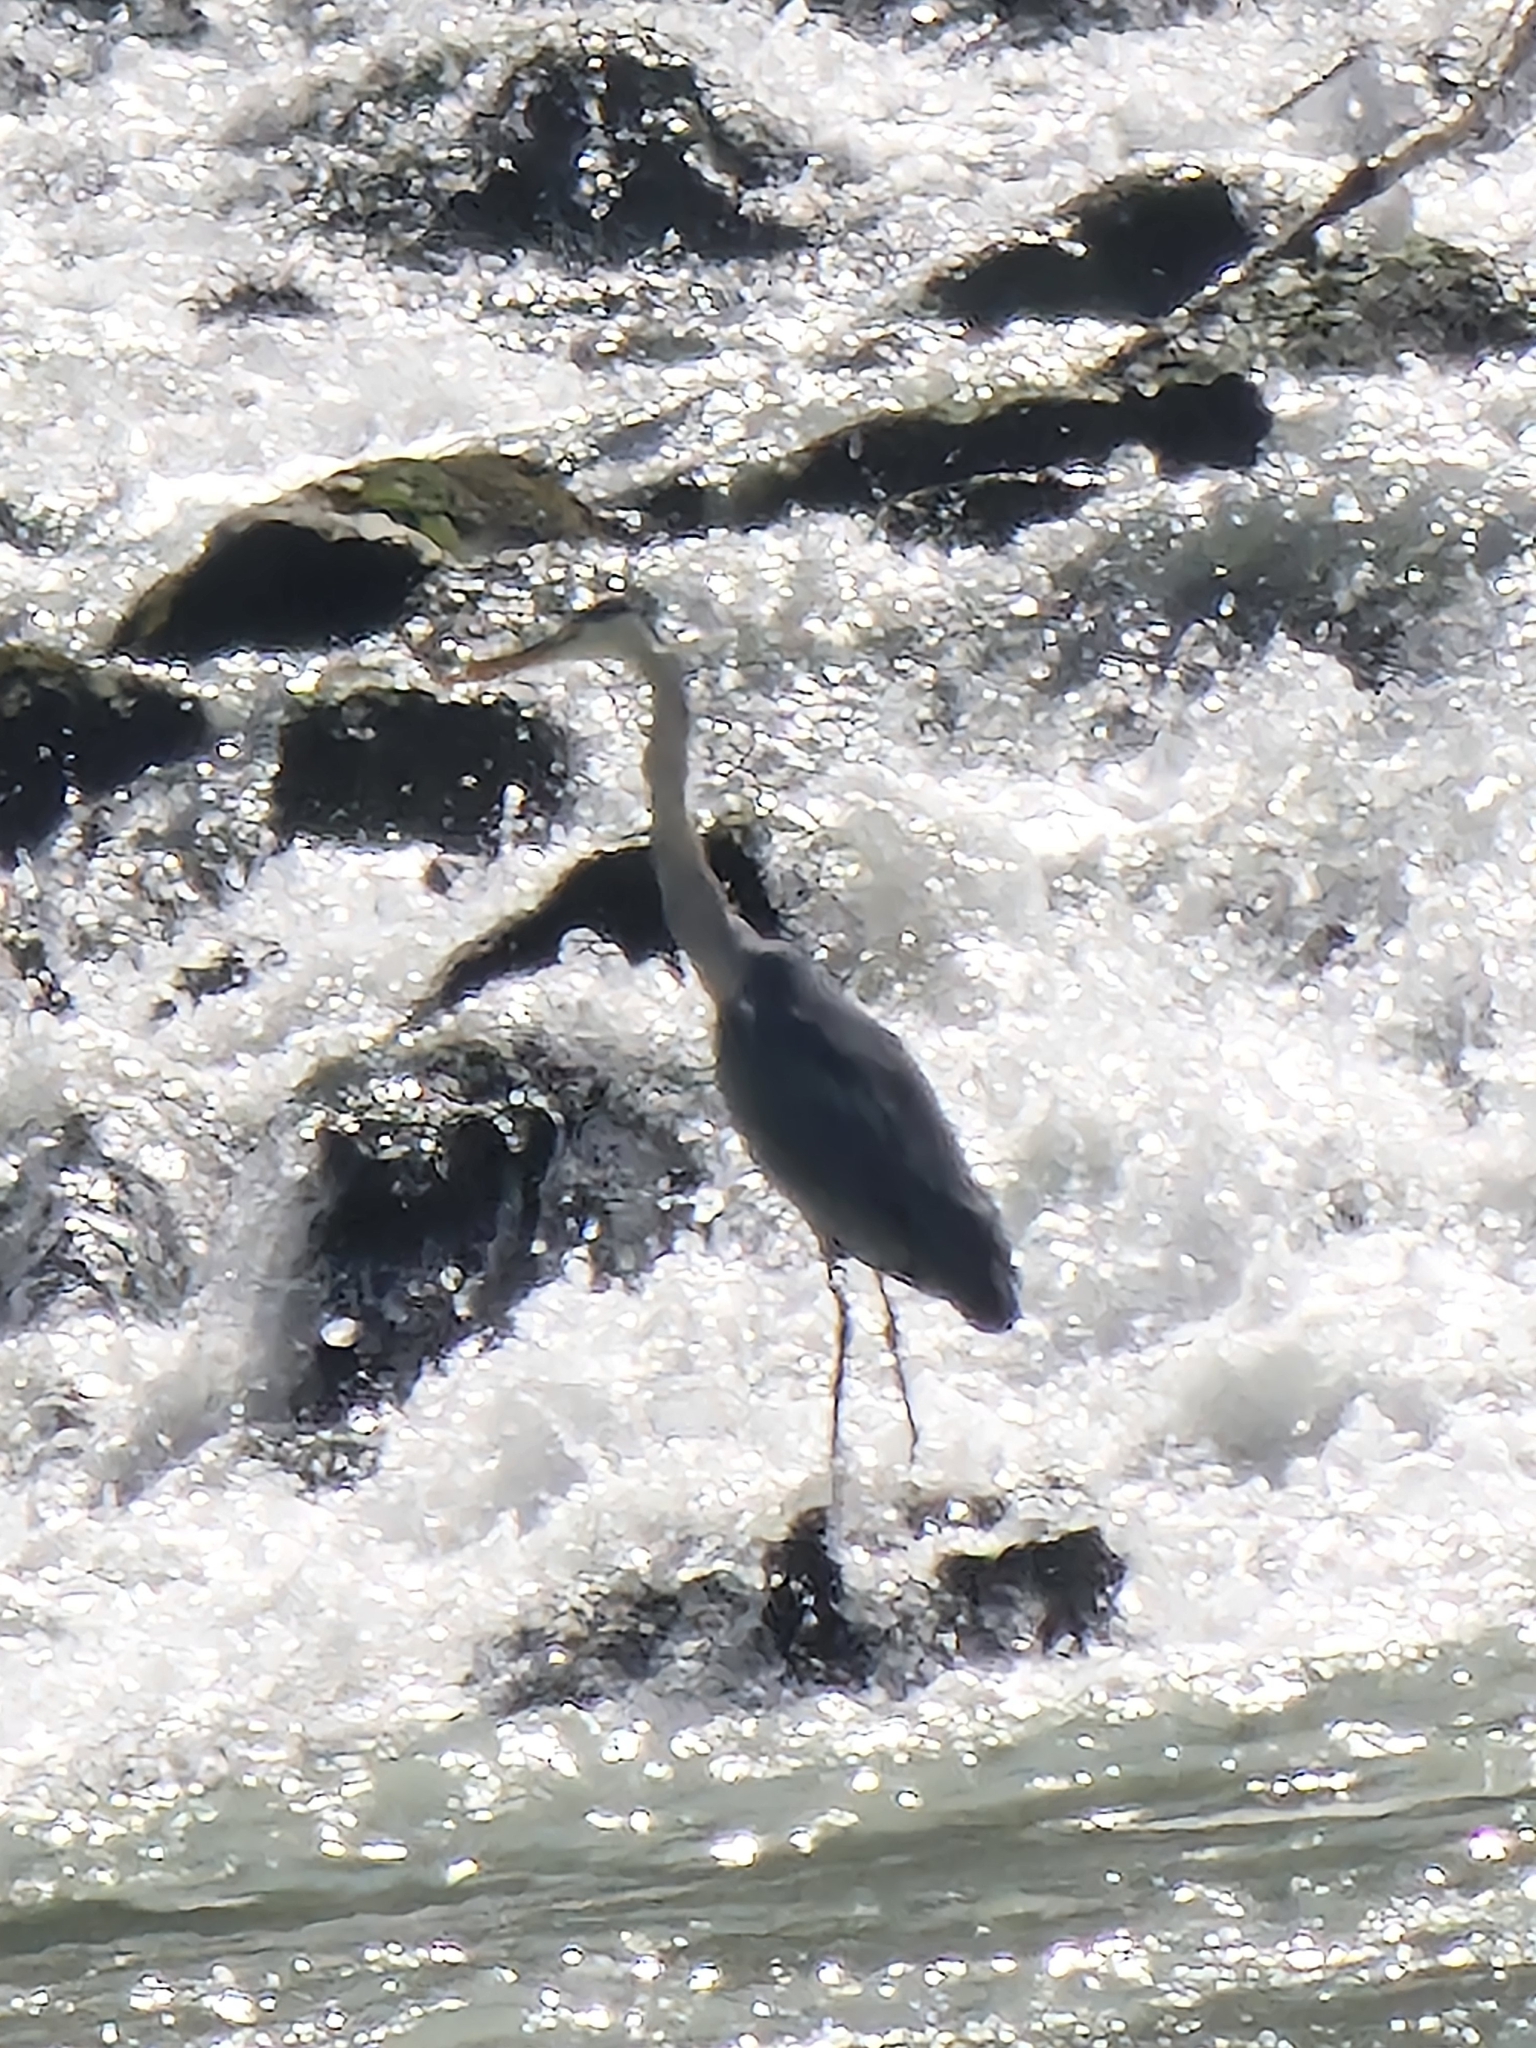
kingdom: Animalia
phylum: Chordata
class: Aves
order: Pelecaniformes
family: Ardeidae
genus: Ardea
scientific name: Ardea cinerea
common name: Grey heron
